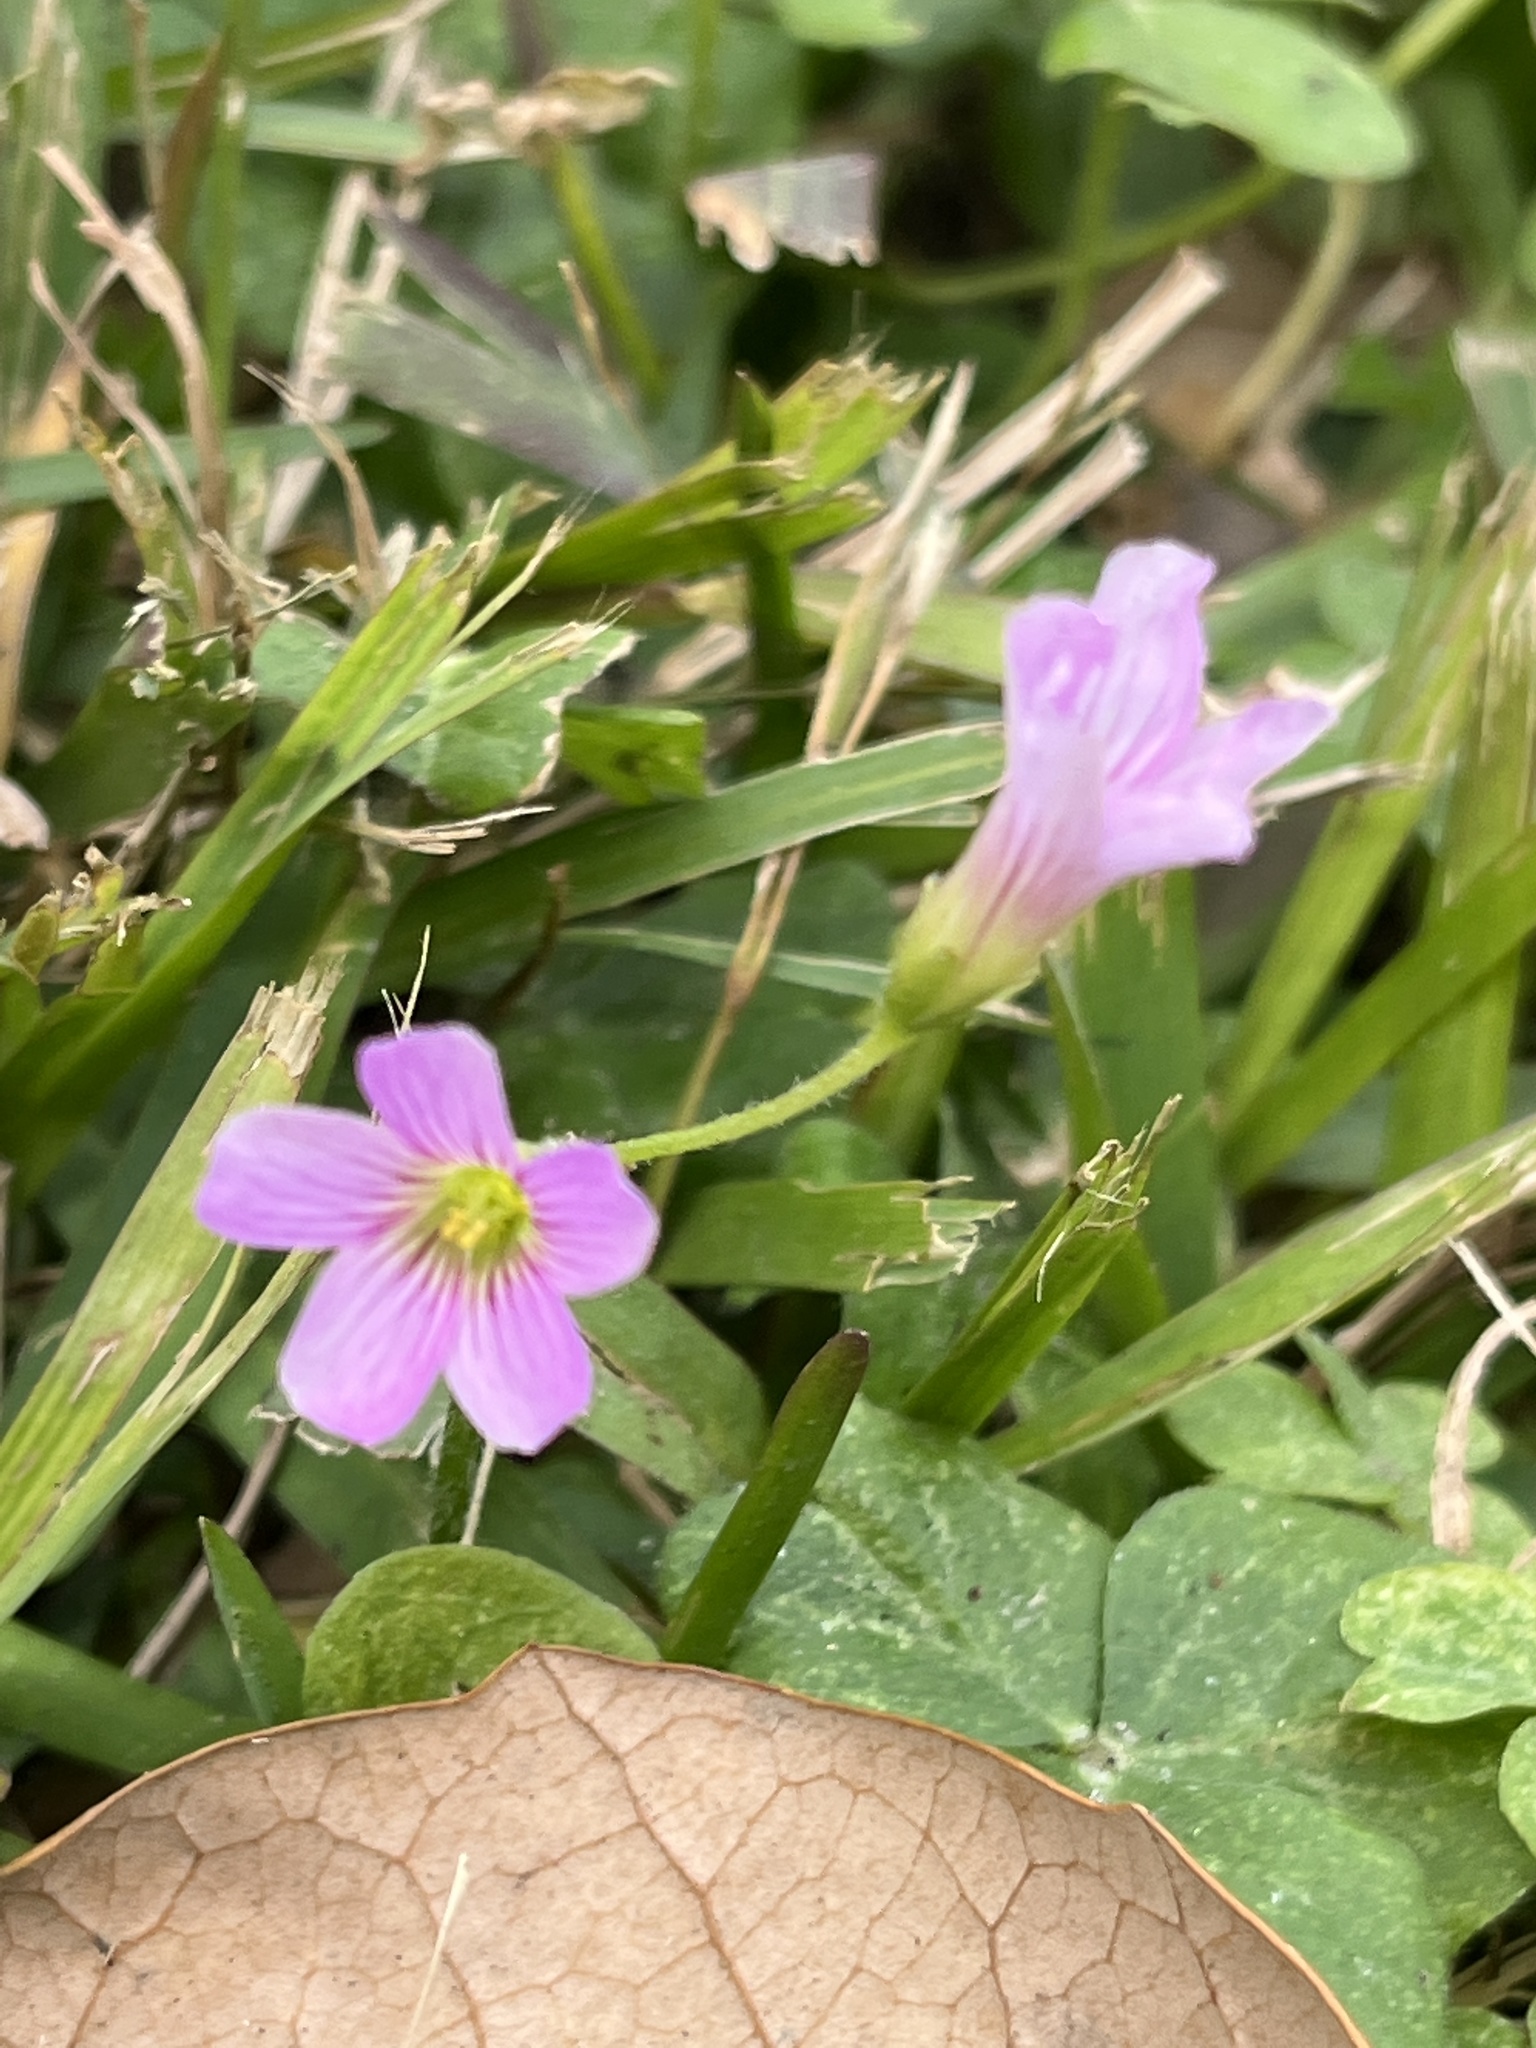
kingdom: Plantae
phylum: Tracheophyta
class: Magnoliopsida
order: Oxalidales
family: Oxalidaceae
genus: Oxalis
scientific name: Oxalis debilis
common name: Large-flowered pink-sorrel
